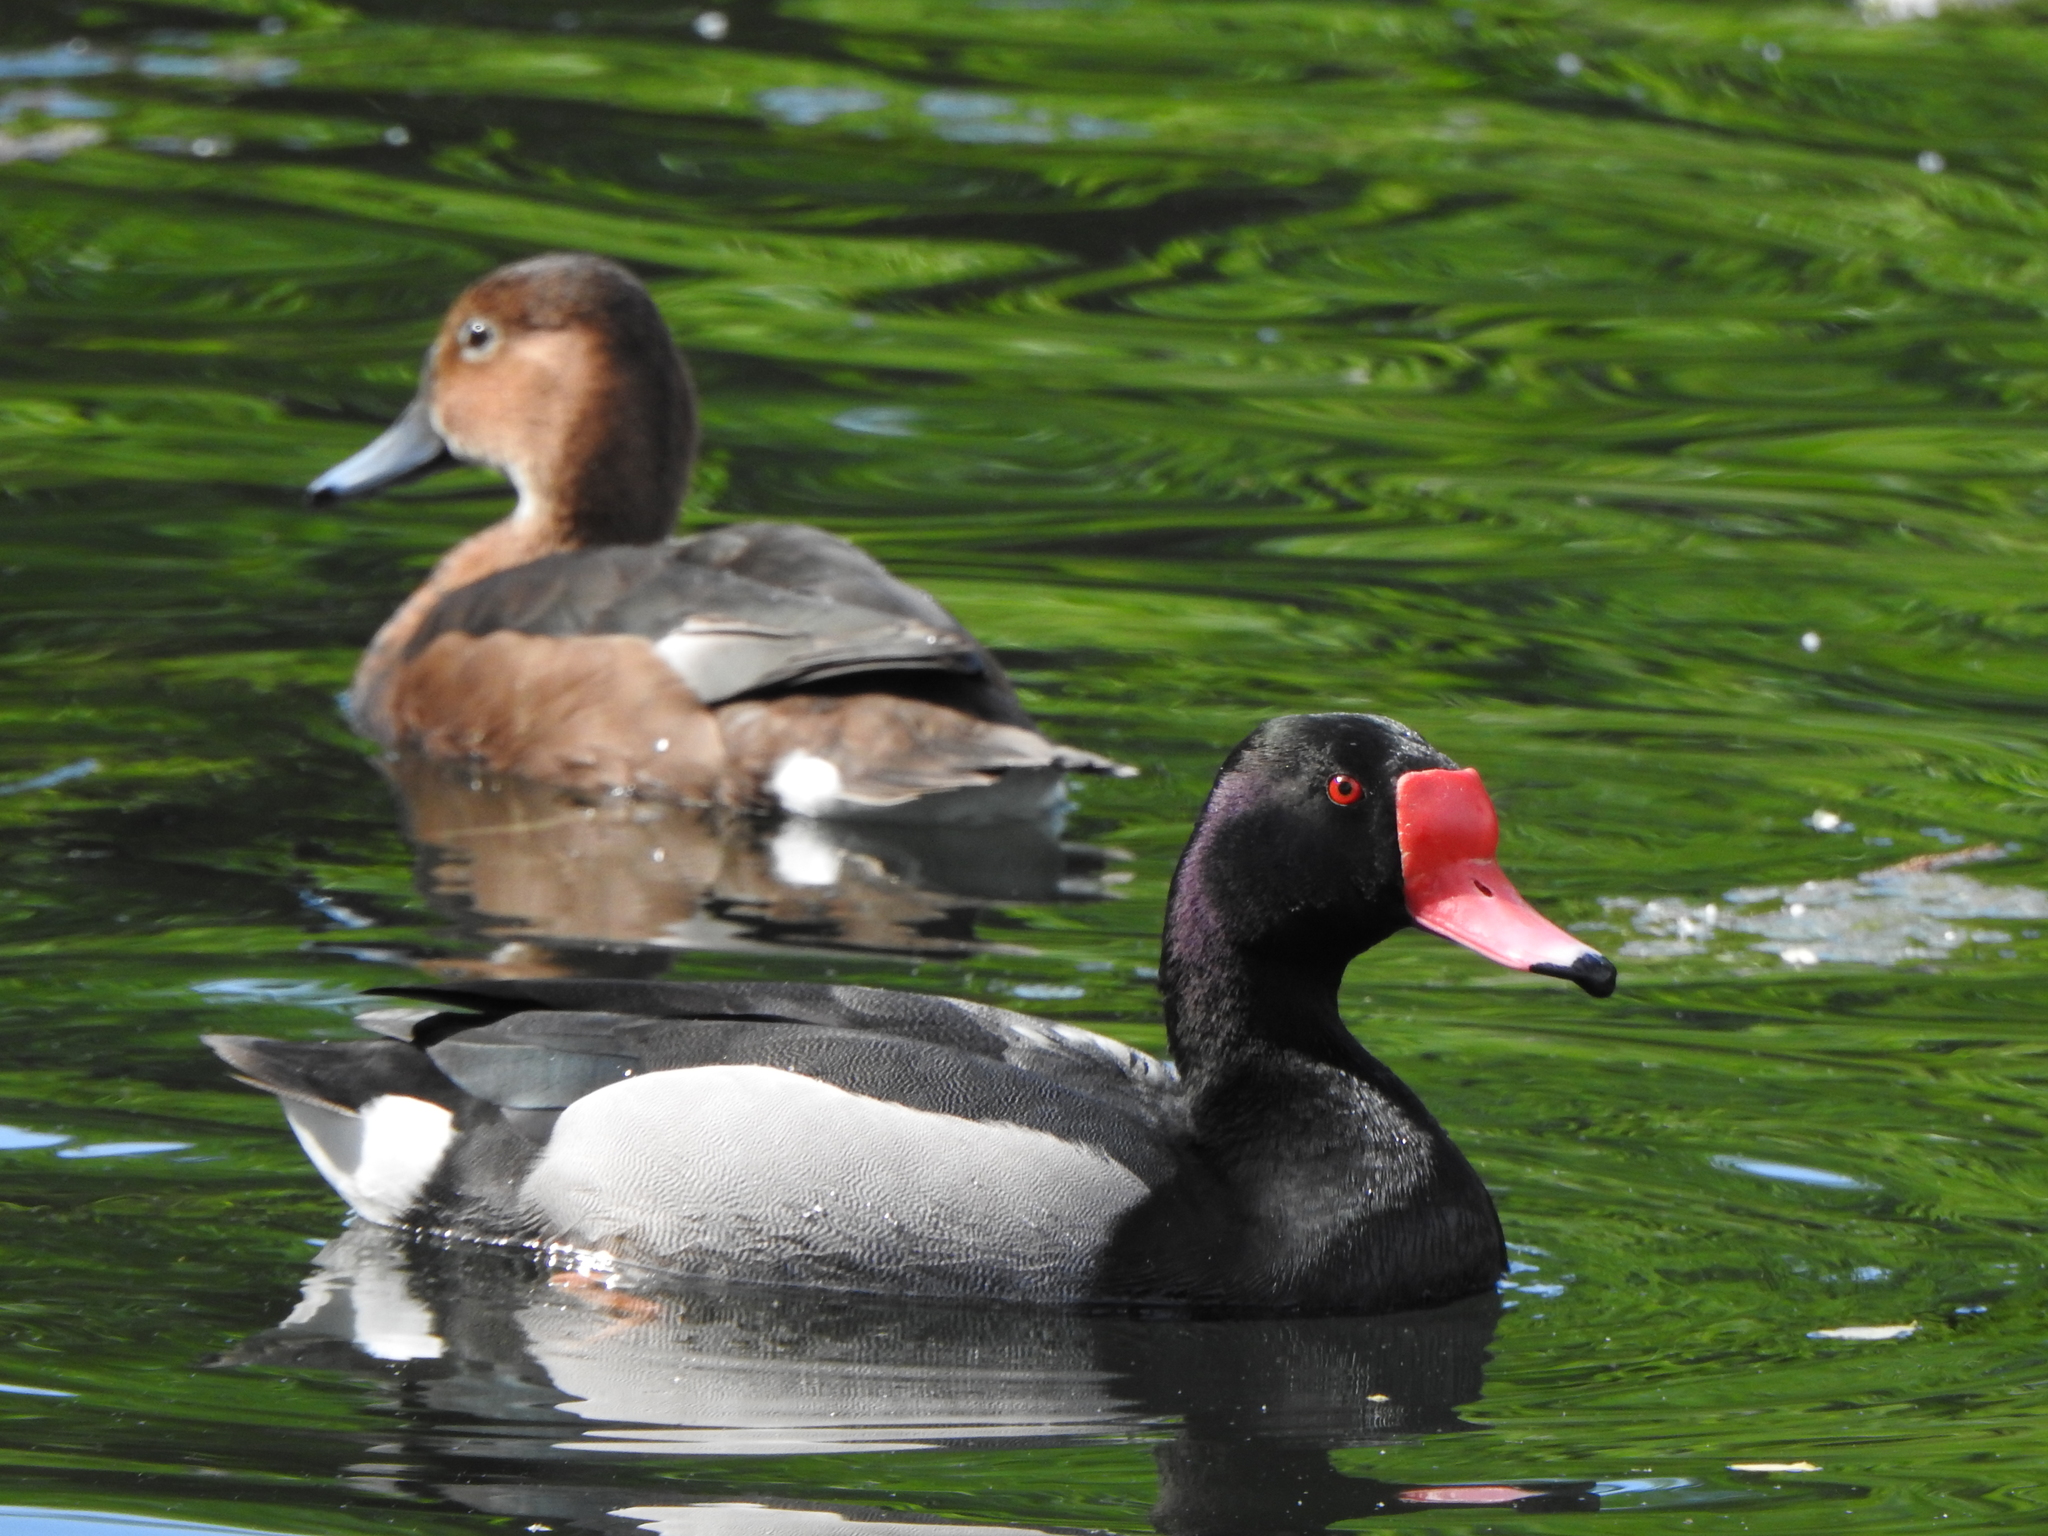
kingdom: Animalia
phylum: Chordata
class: Aves
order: Anseriformes
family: Anatidae
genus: Netta
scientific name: Netta peposaca
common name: Rosy-billed pochard
